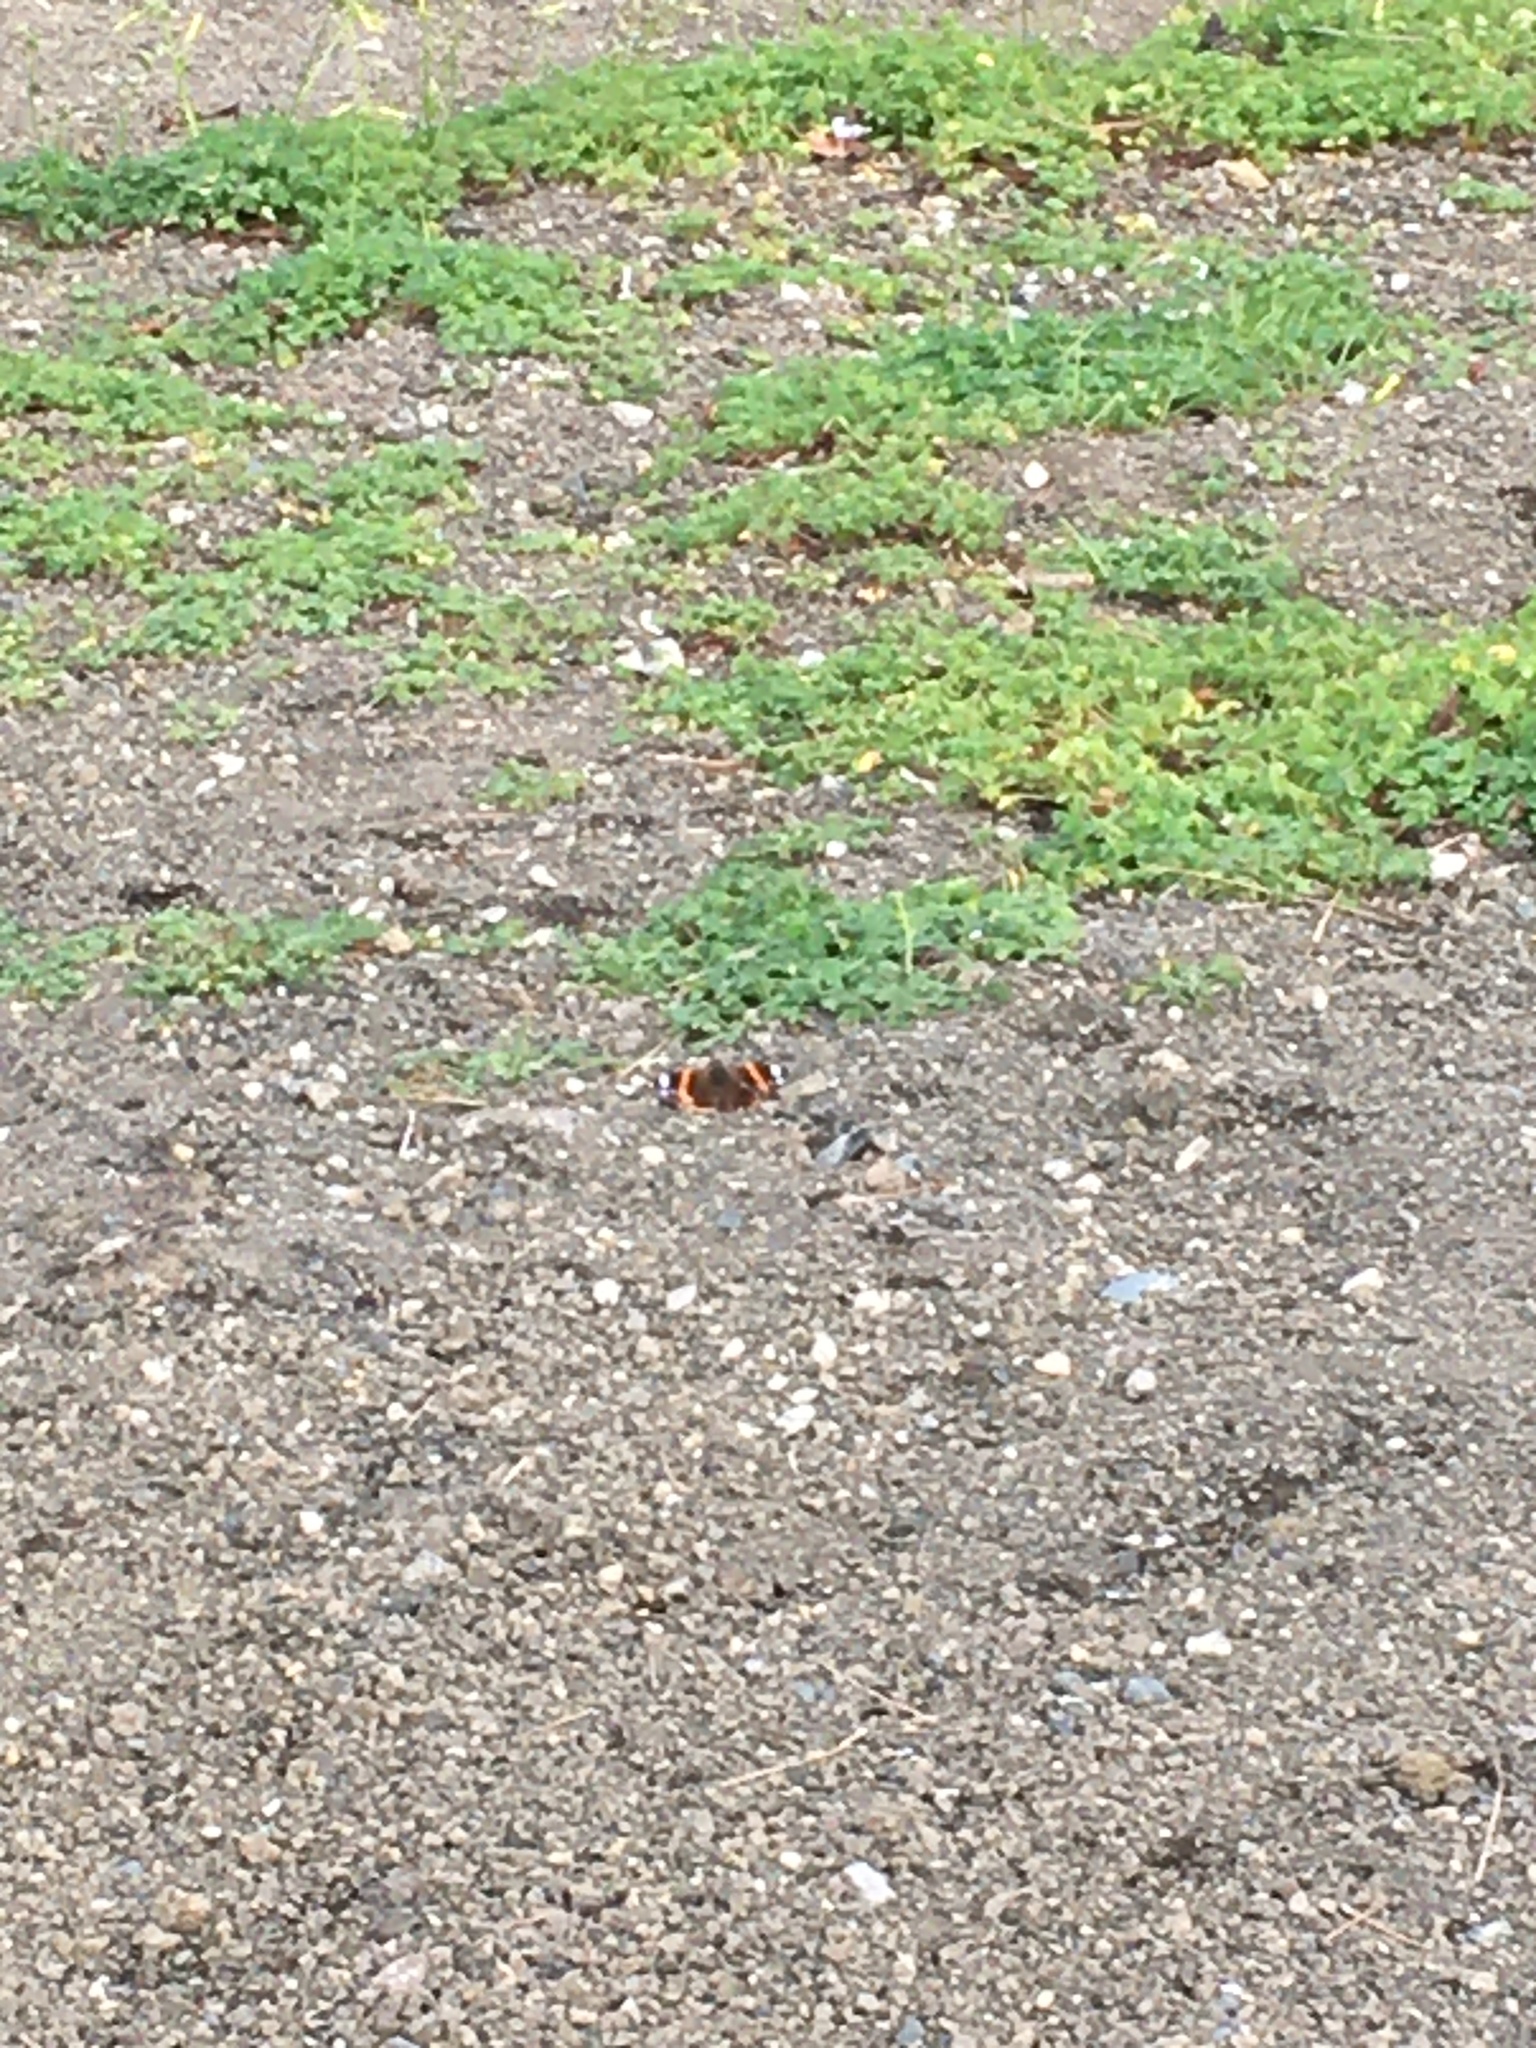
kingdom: Animalia
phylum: Arthropoda
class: Insecta
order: Lepidoptera
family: Nymphalidae
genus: Vanessa
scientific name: Vanessa atalanta
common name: Red admiral
